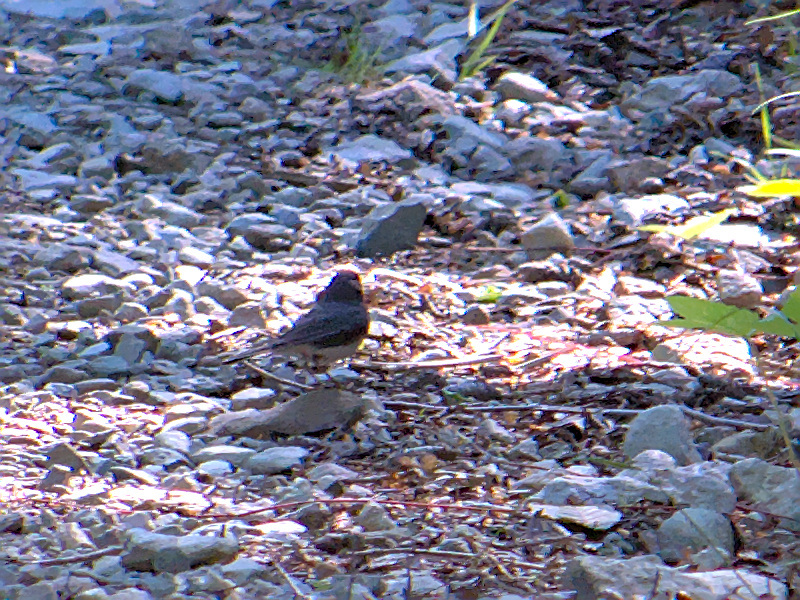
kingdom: Animalia
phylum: Chordata
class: Aves
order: Passeriformes
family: Passerellidae
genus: Junco
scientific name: Junco hyemalis
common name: Dark-eyed junco
